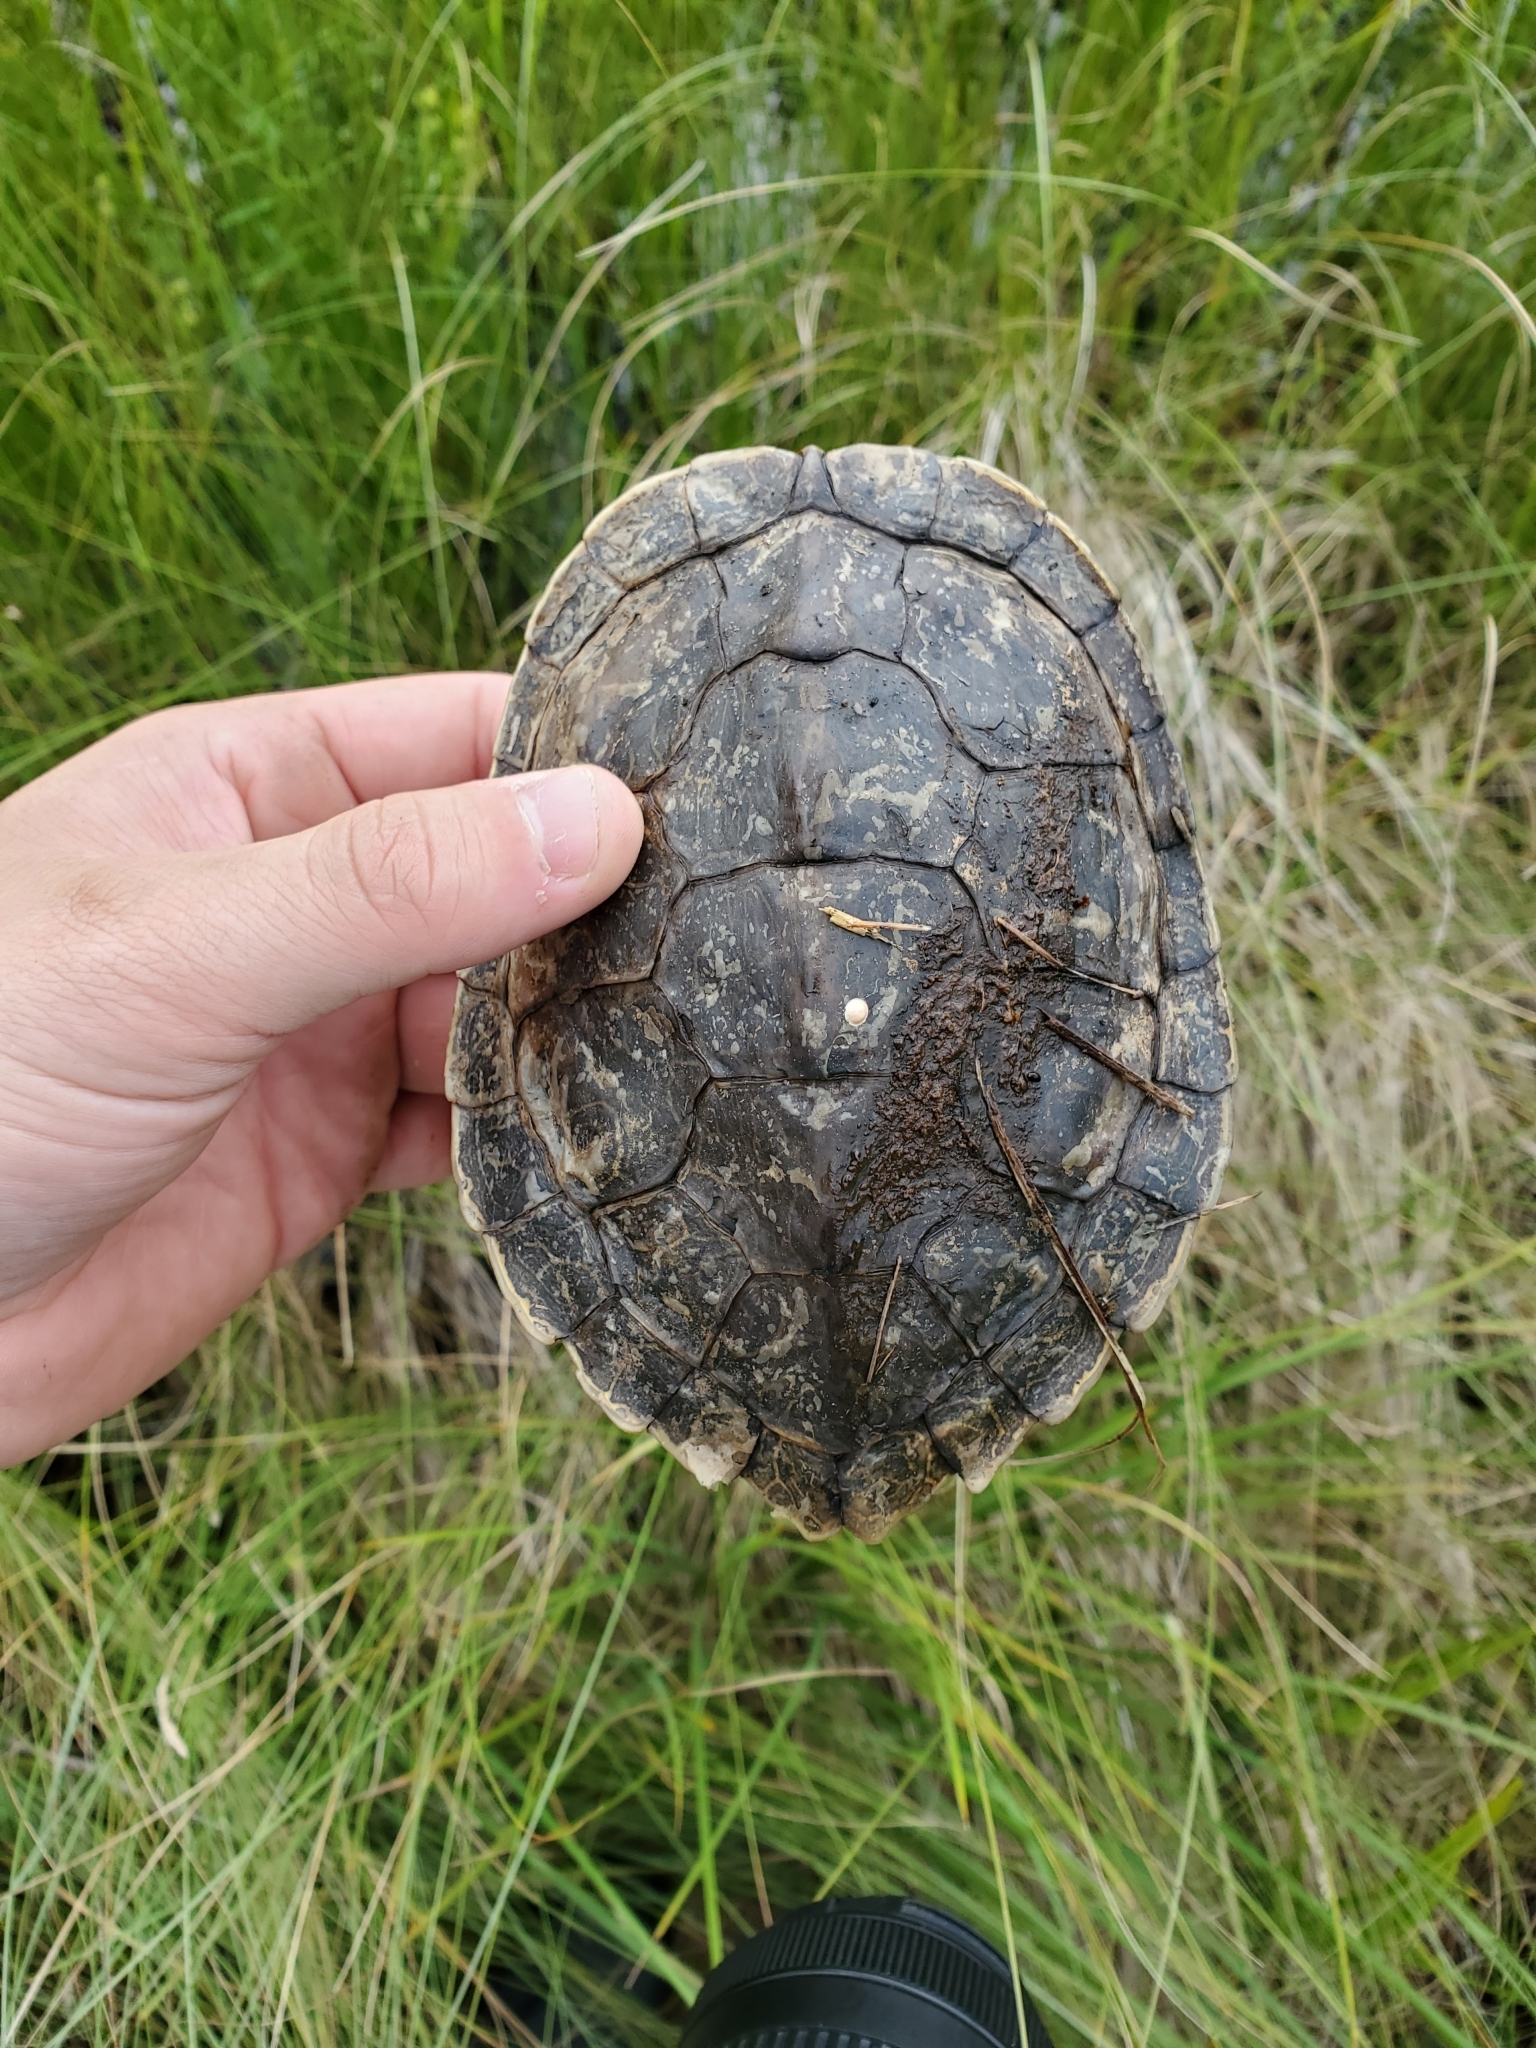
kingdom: Animalia
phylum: Chordata
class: Testudines
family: Emydidae
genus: Graptemys
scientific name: Graptemys geographica
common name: Common map turtle
